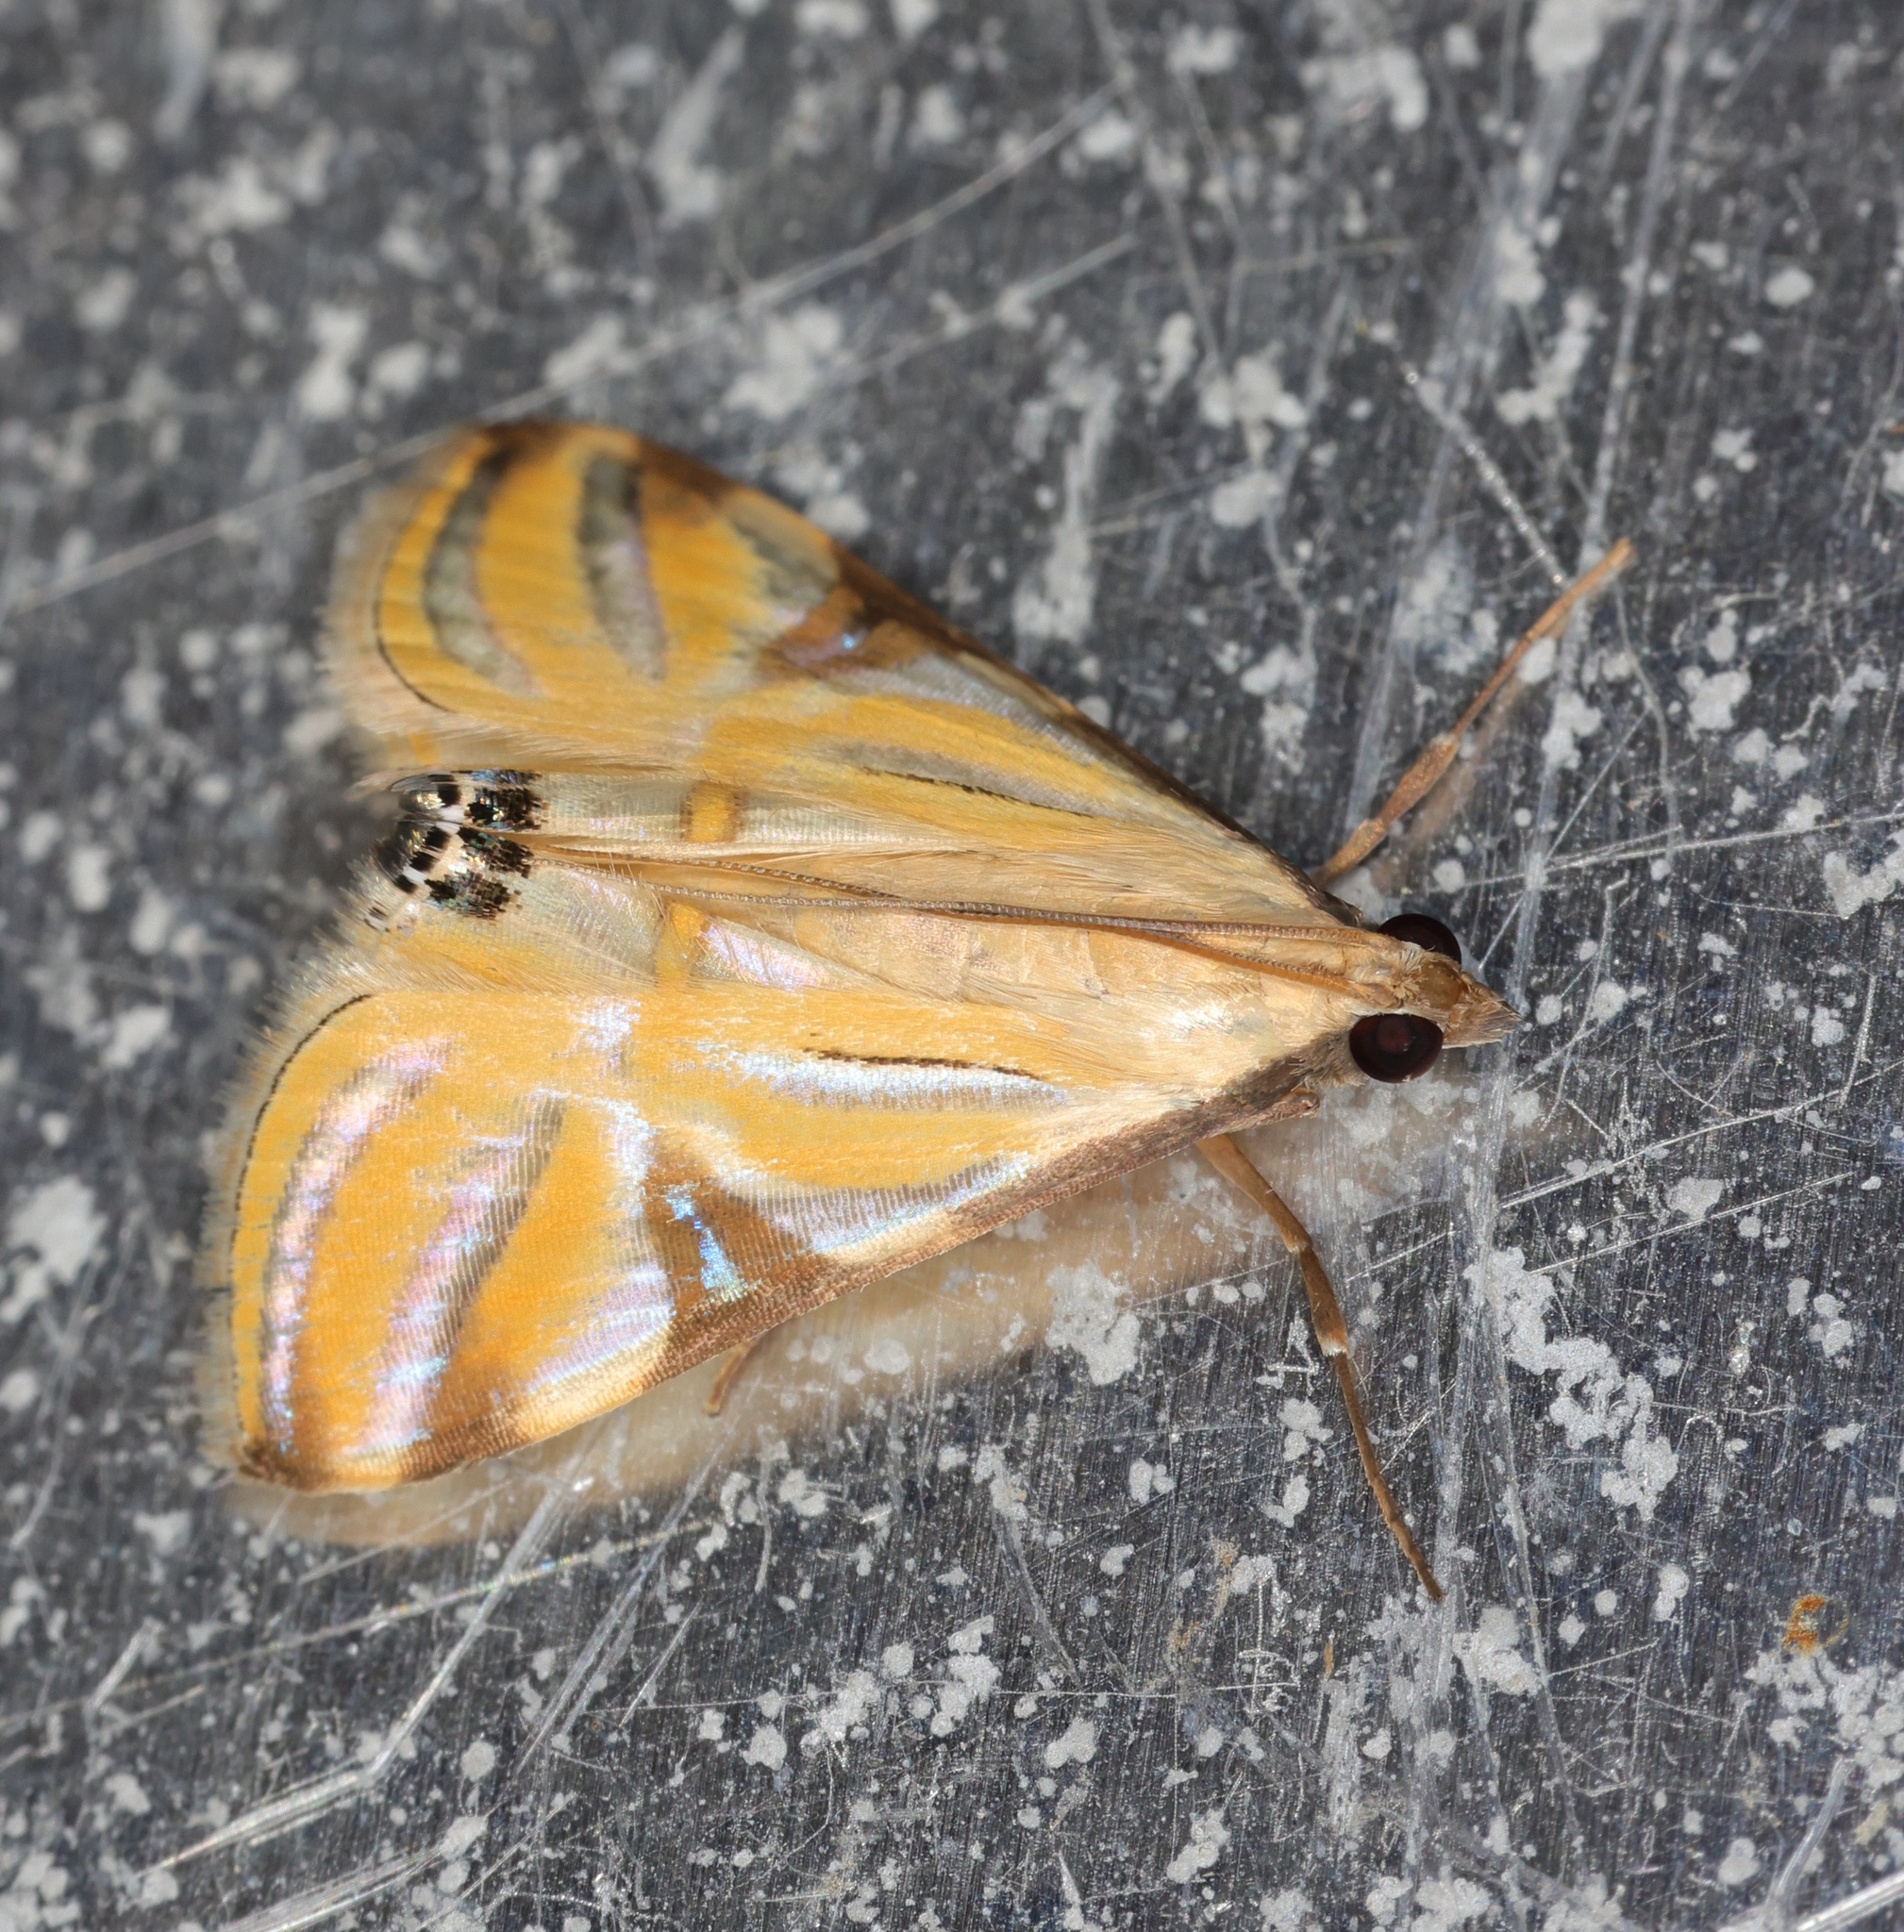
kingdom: Animalia
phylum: Arthropoda
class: Insecta
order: Lepidoptera
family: Crambidae
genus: Talanga
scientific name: Talanga sexpunctalis
